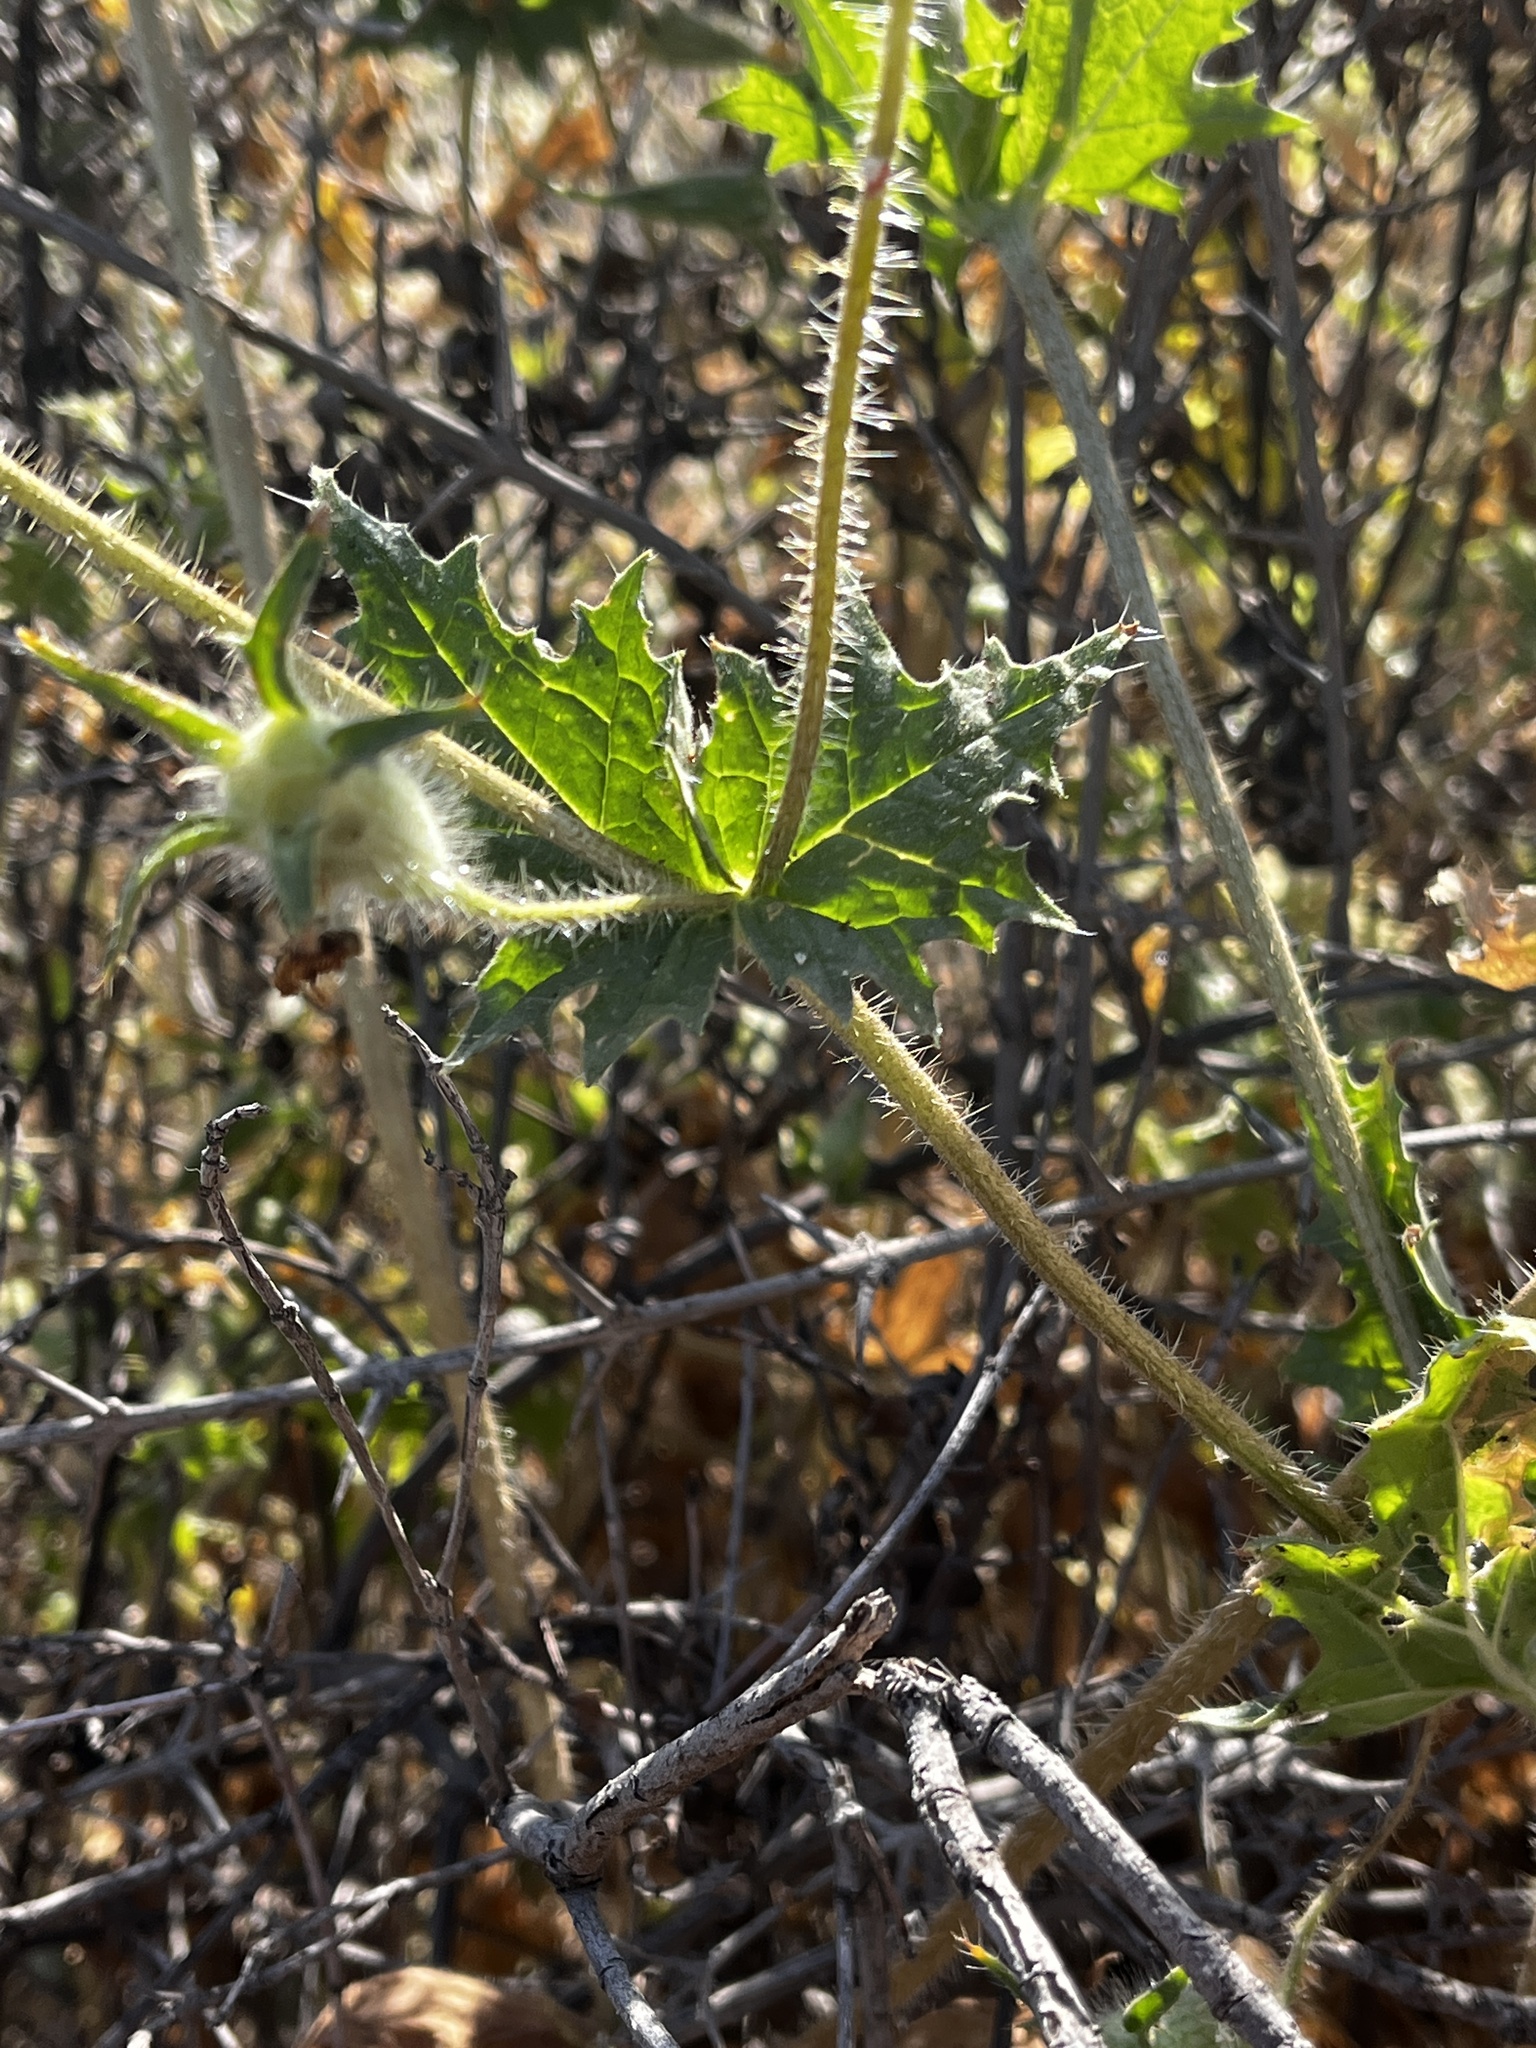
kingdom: Plantae
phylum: Tracheophyta
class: Magnoliopsida
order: Cornales
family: Loasaceae
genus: Loasa
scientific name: Loasa placei
